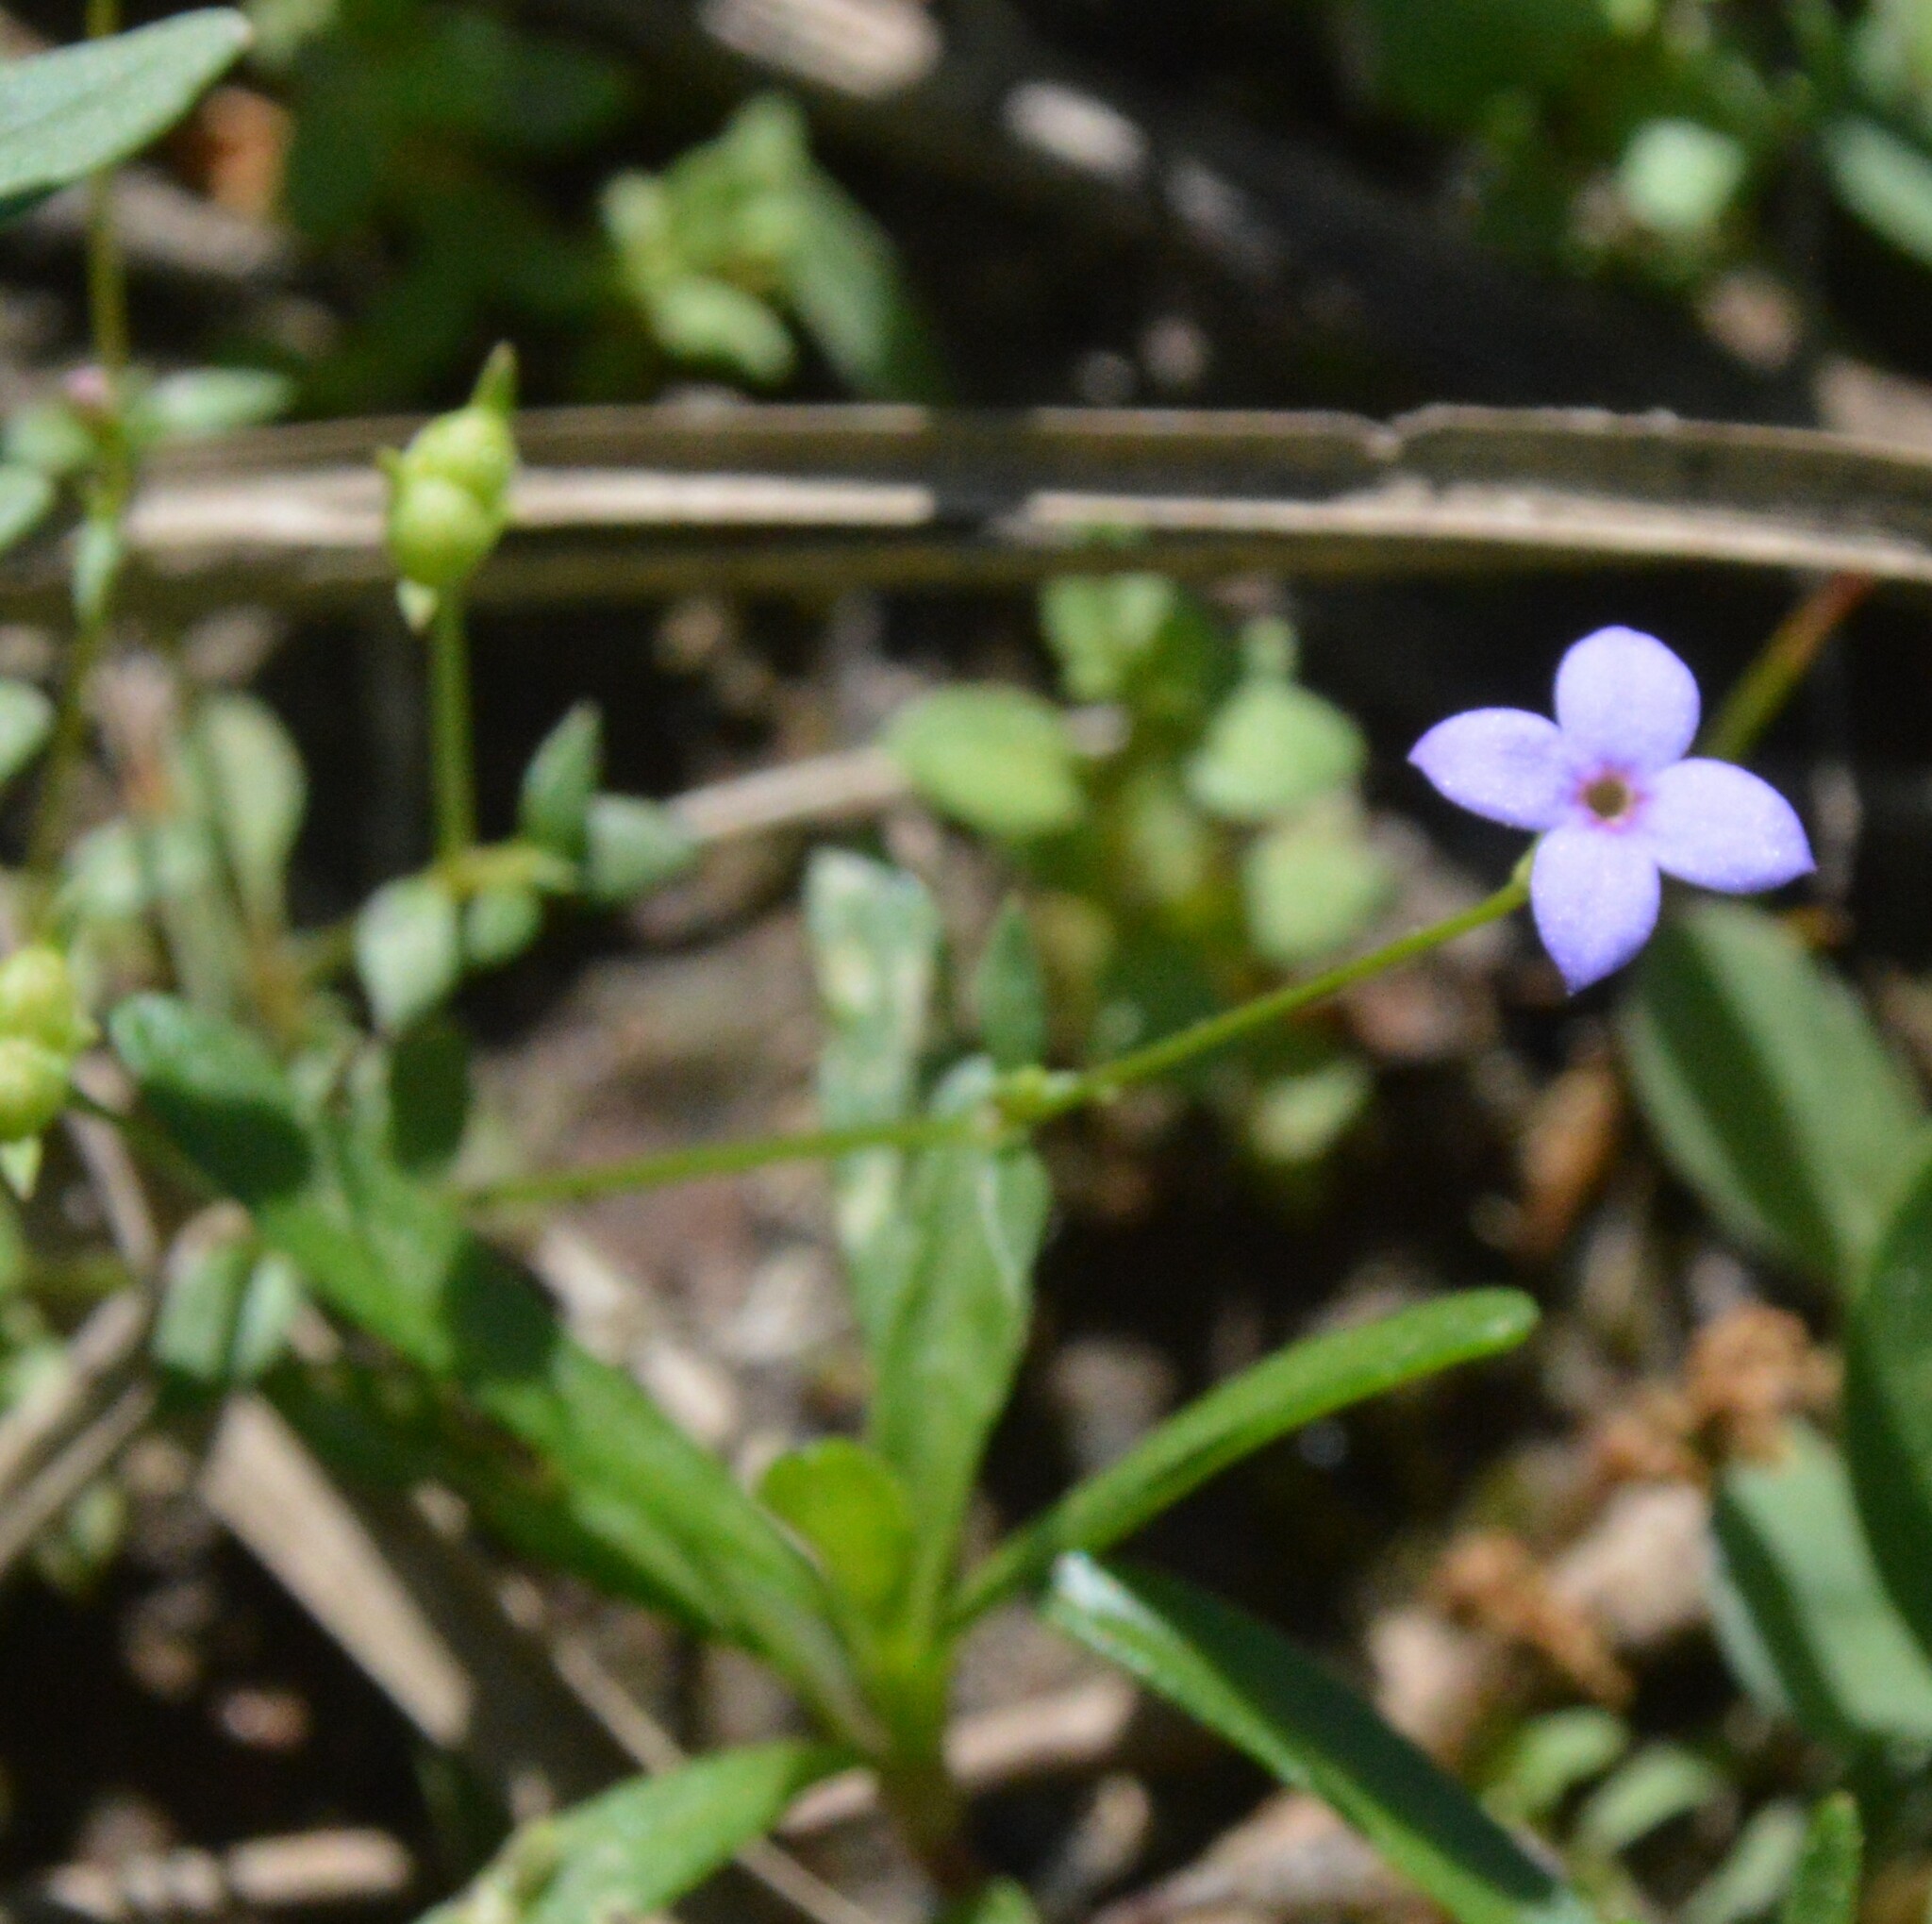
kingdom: Plantae
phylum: Tracheophyta
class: Magnoliopsida
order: Gentianales
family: Rubiaceae
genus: Houstonia
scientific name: Houstonia pusilla
